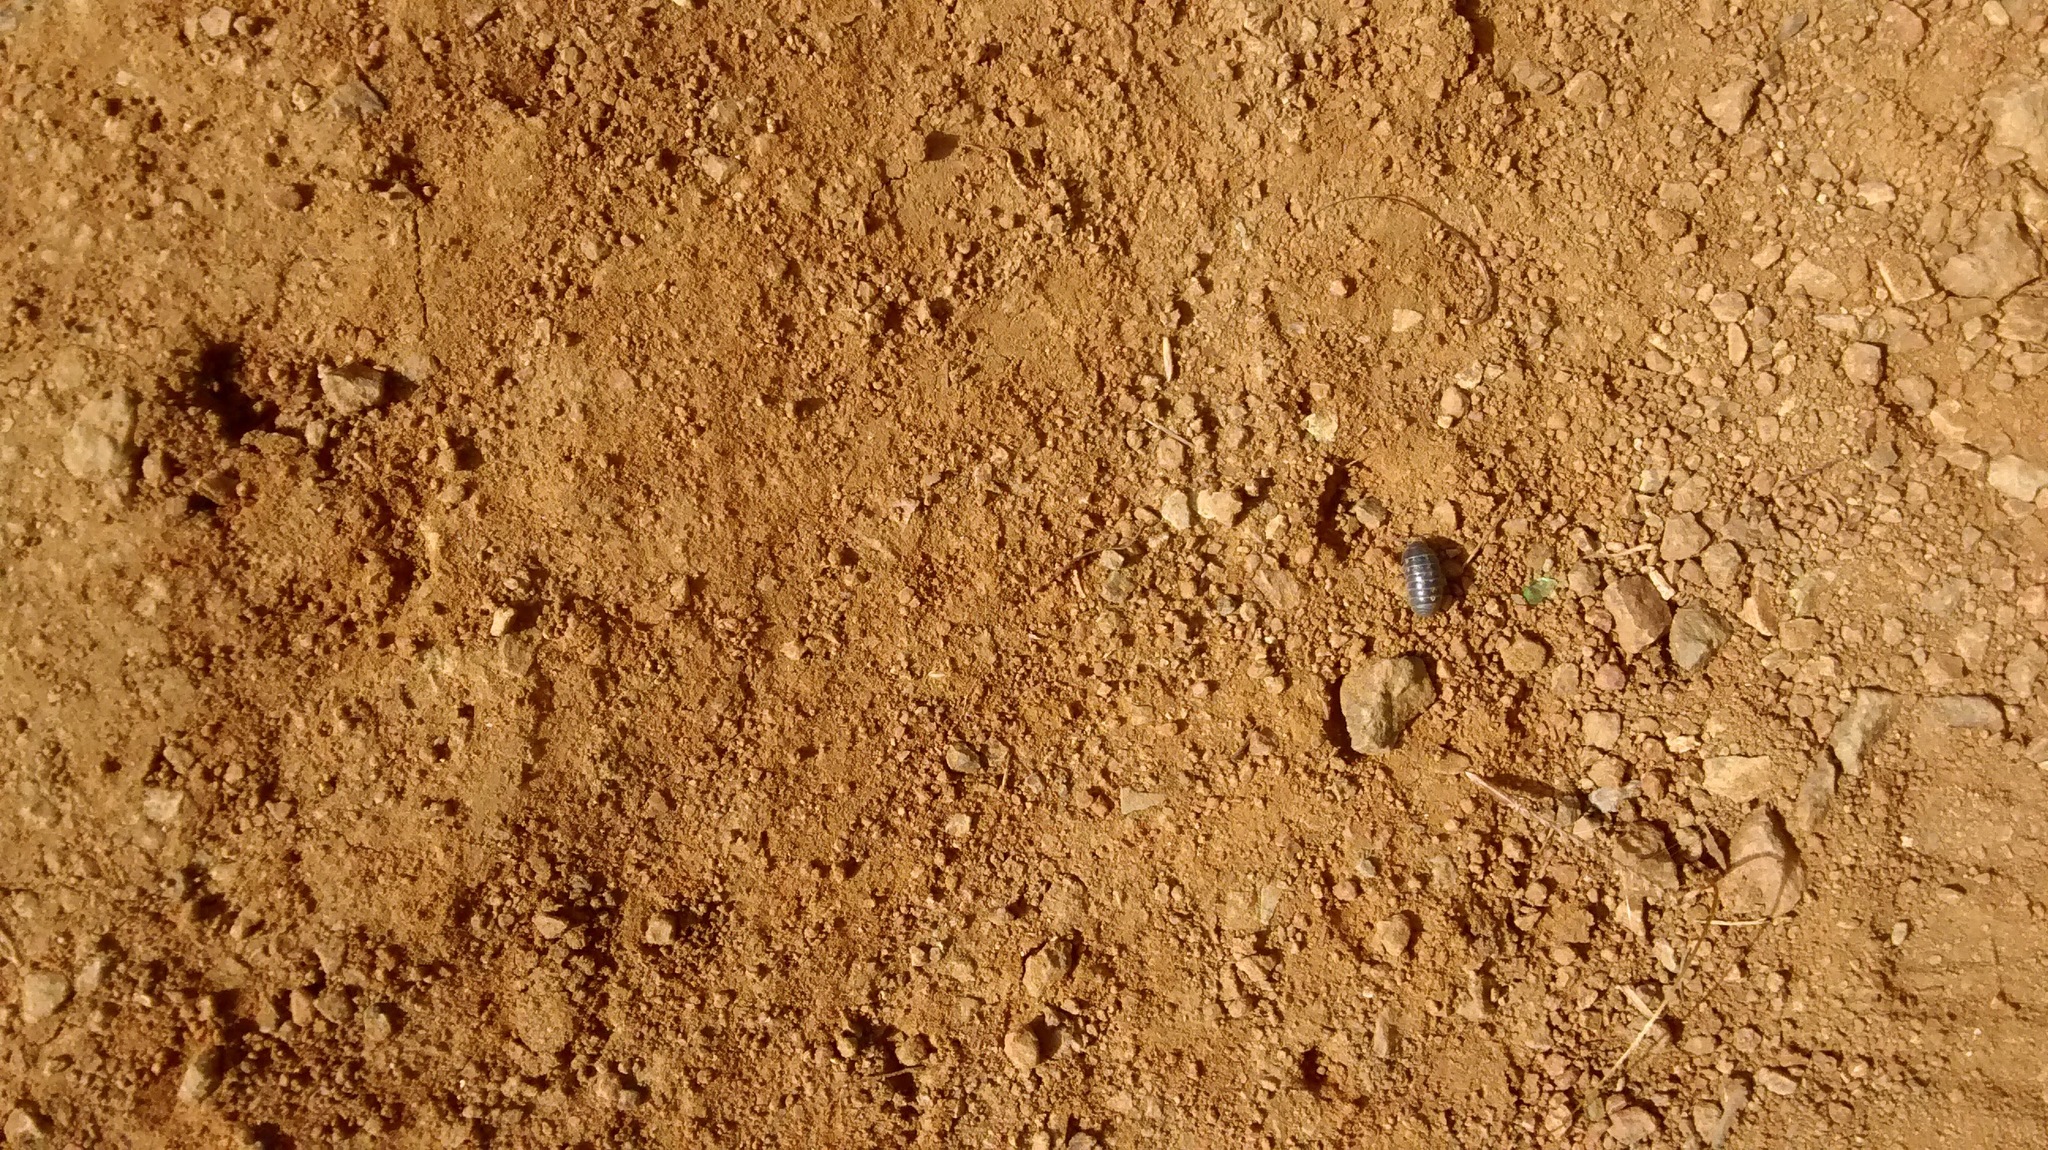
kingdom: Animalia
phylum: Arthropoda
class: Malacostraca
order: Isopoda
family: Armadillidiidae
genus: Armadillidium
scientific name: Armadillidium vulgare
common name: Common pill woodlouse
